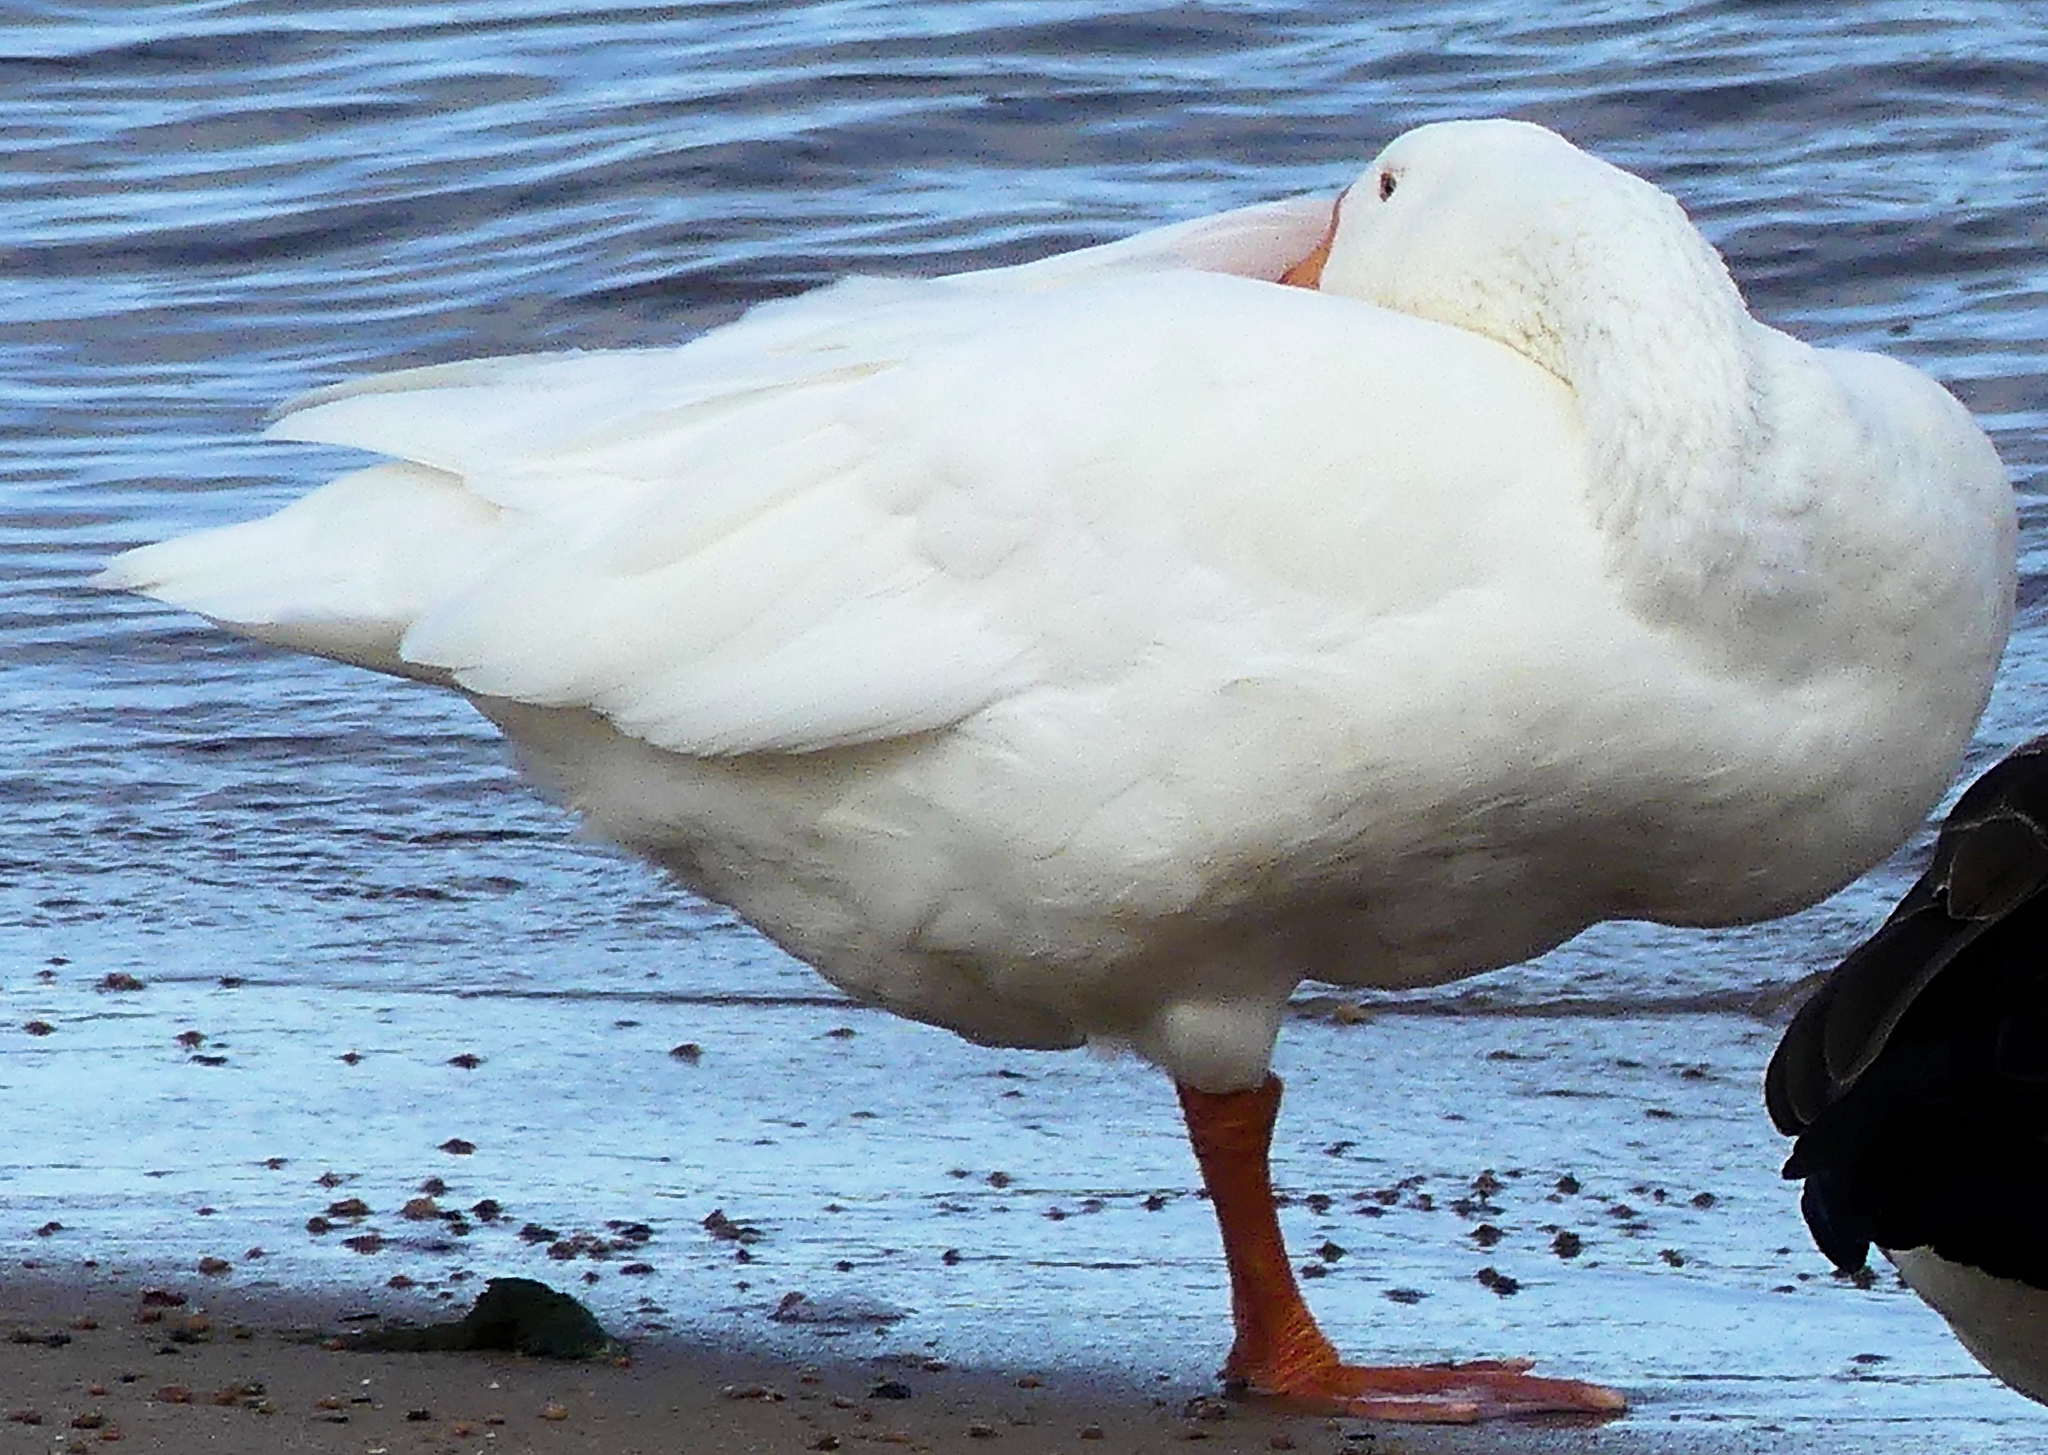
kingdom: Animalia
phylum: Chordata
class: Aves
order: Anseriformes
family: Anatidae
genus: Anser
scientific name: Anser anser
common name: Greylag goose
